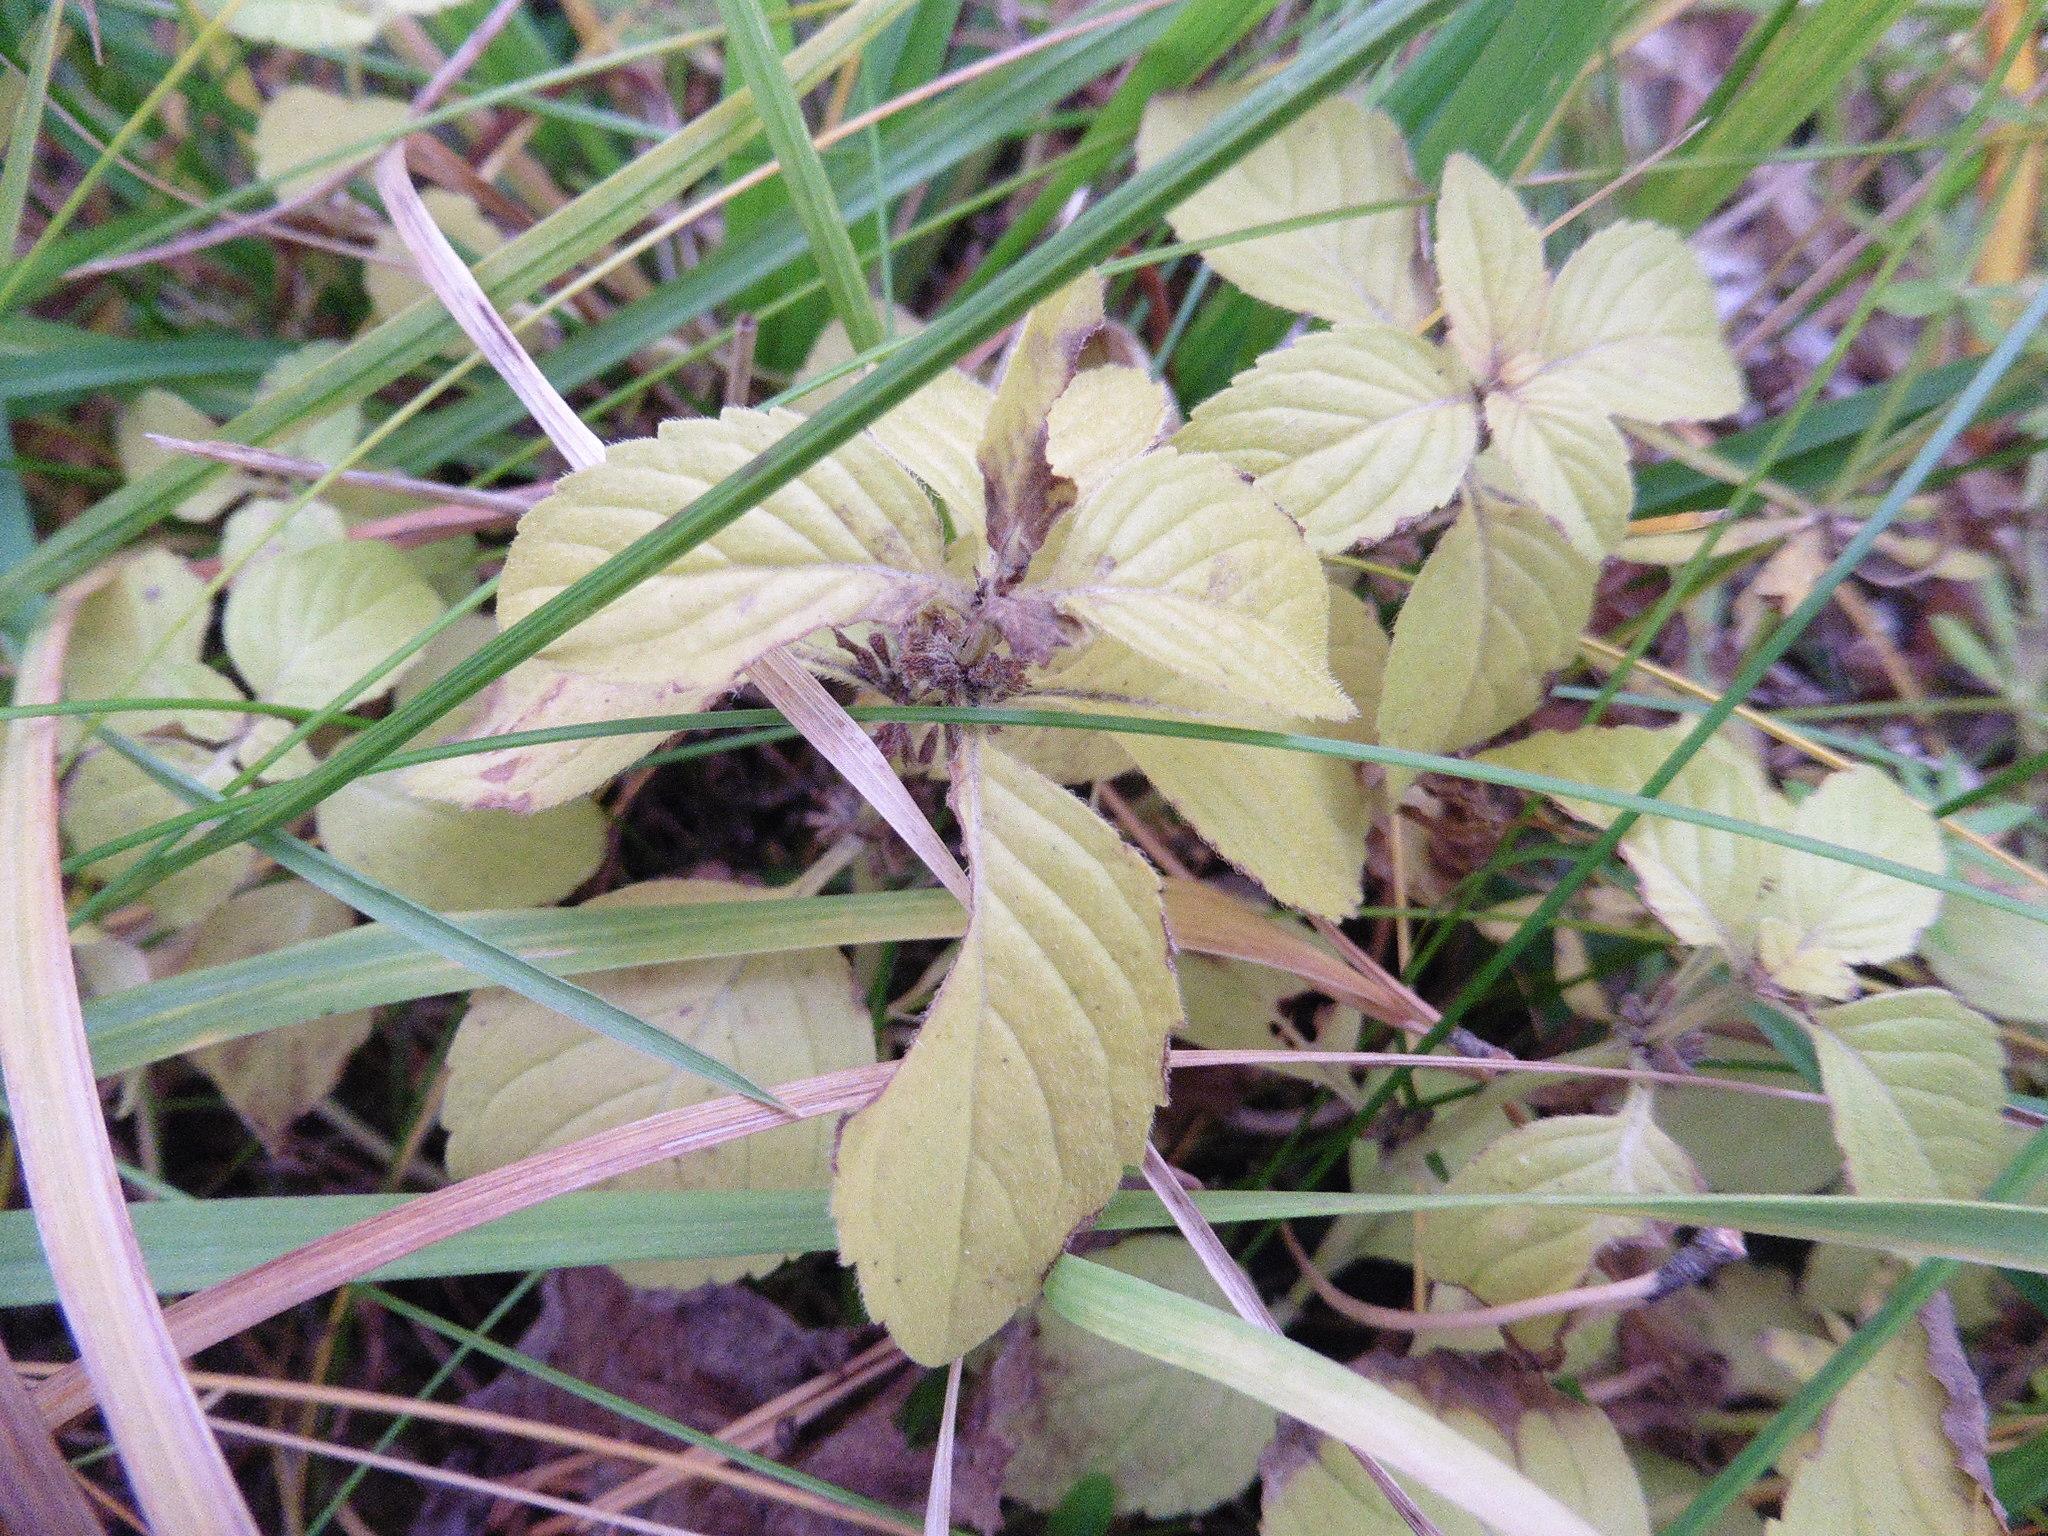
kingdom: Plantae
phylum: Tracheophyta
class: Magnoliopsida
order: Lamiales
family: Lamiaceae
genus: Mentha
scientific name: Mentha arvensis
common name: Corn mint
